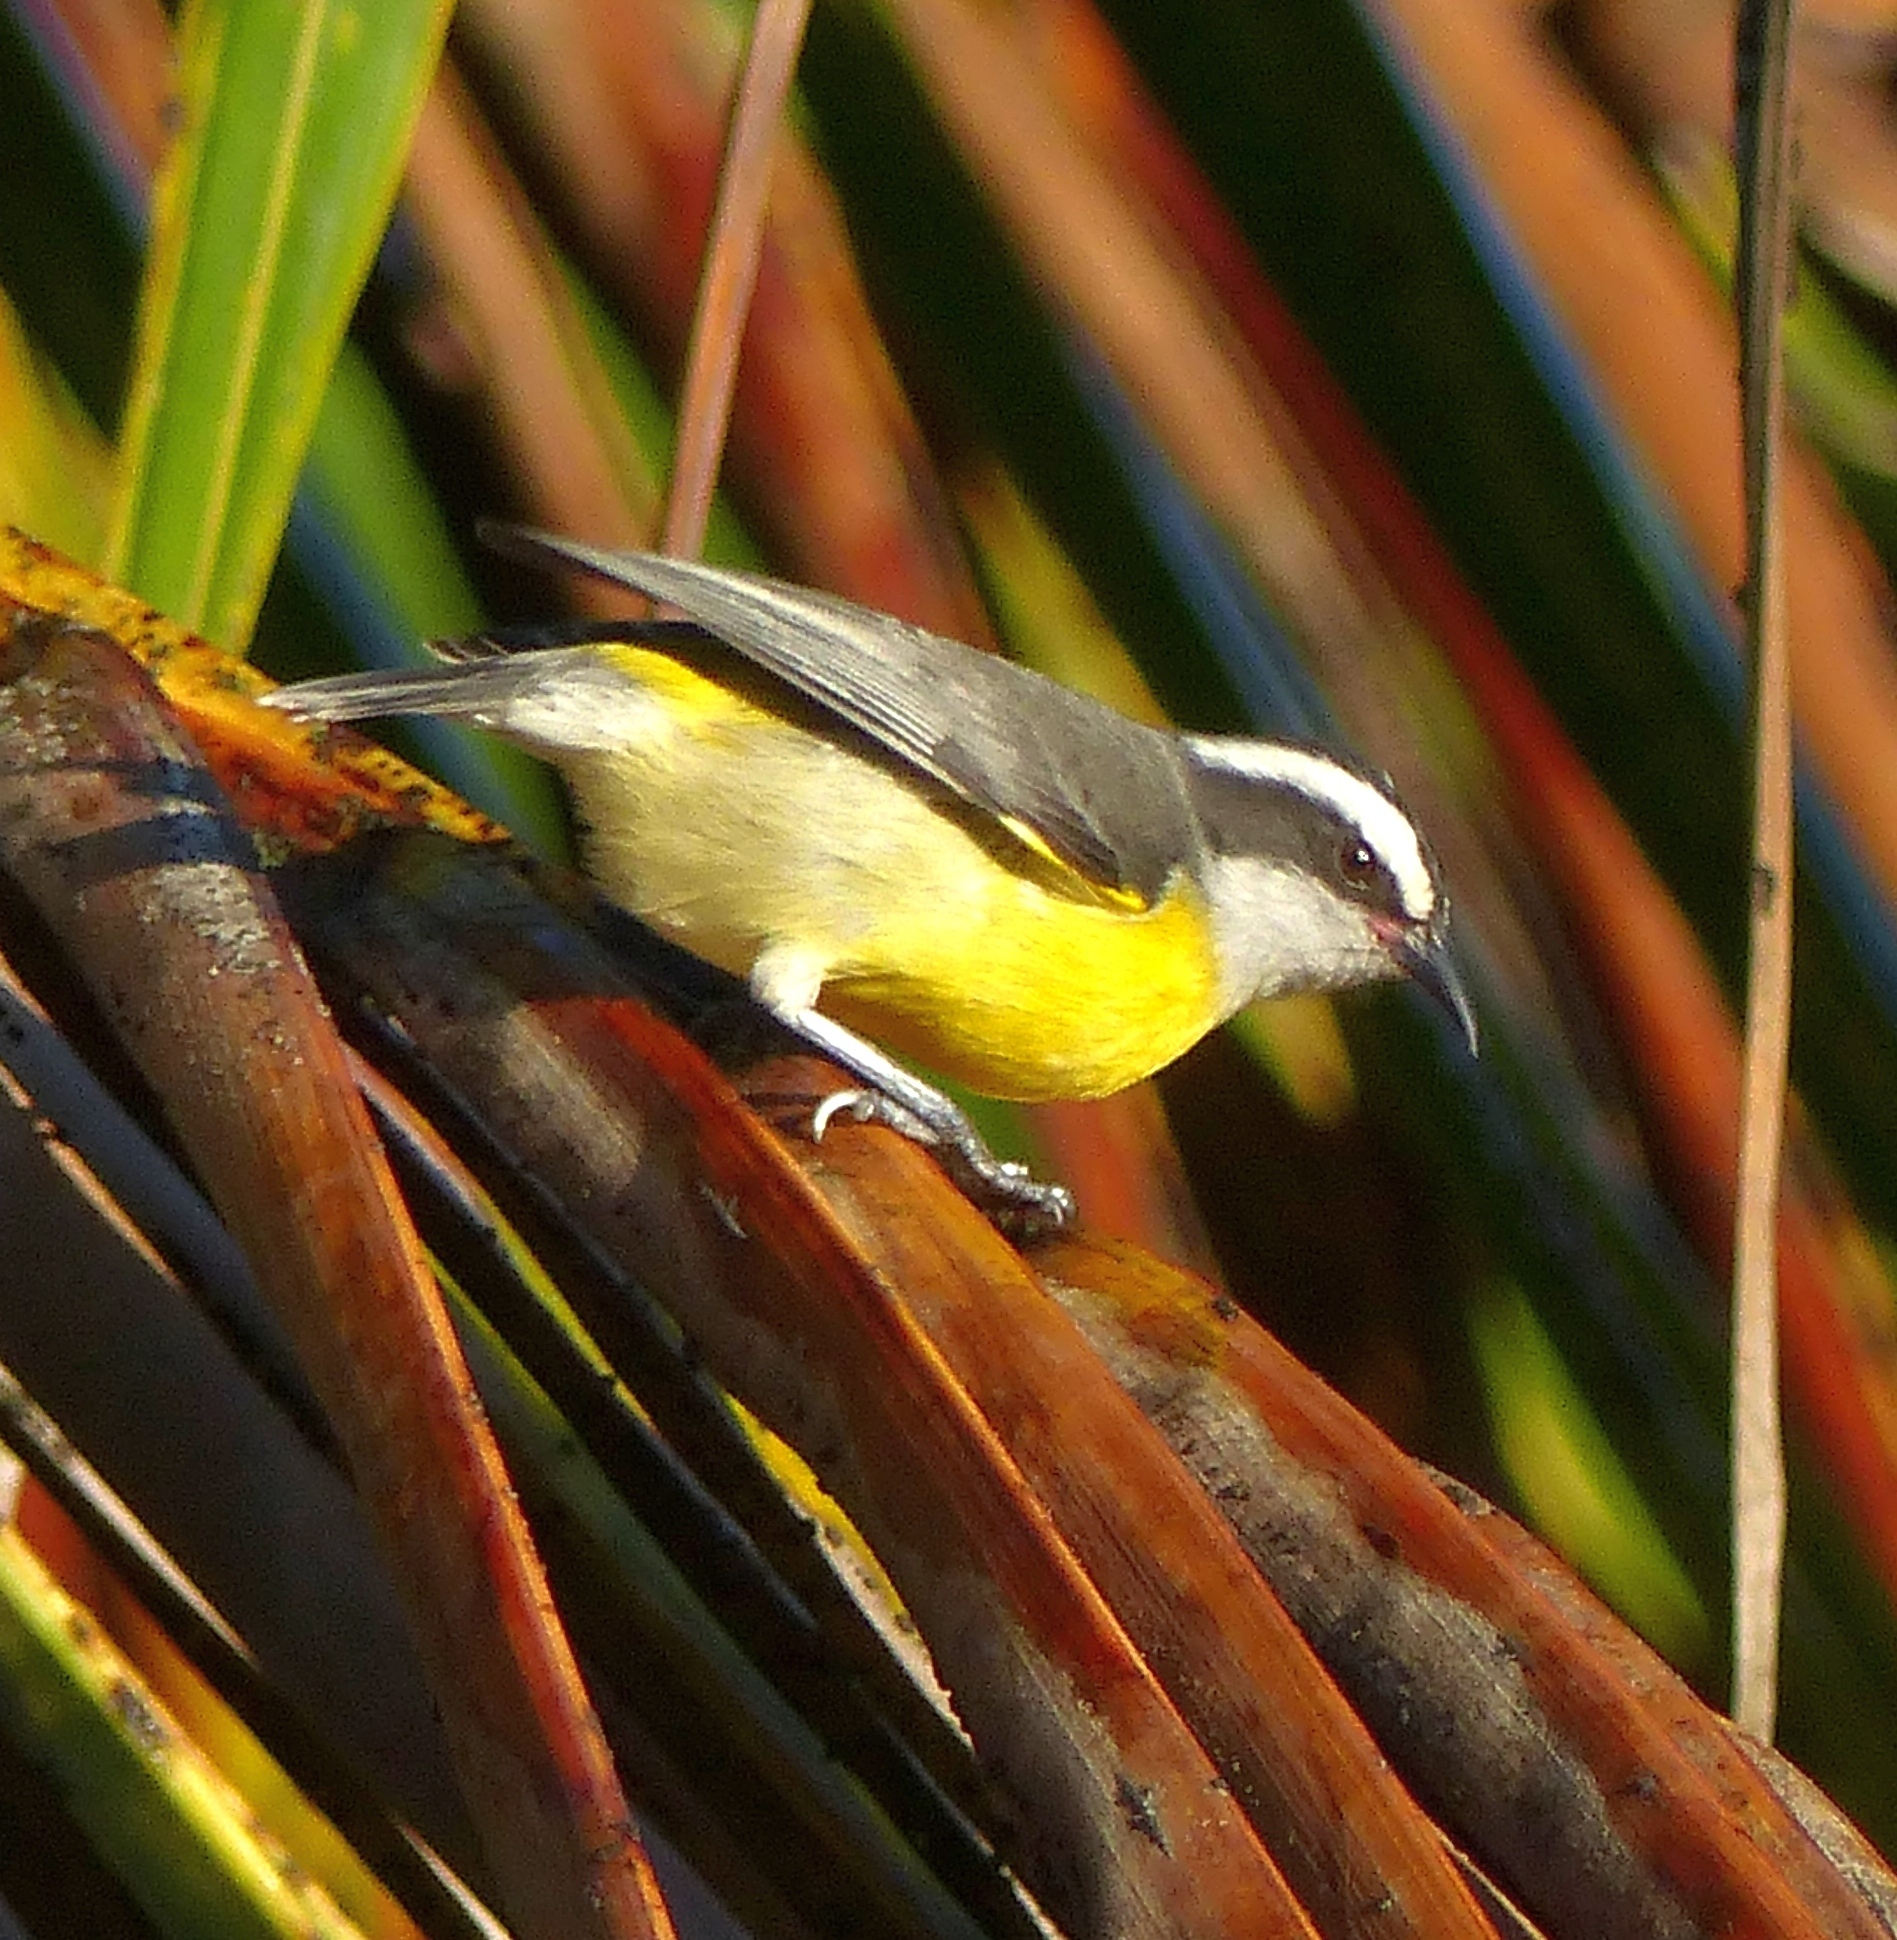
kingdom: Animalia
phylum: Chordata
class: Aves
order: Passeriformes
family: Thraupidae
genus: Coereba
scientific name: Coereba flaveola
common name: Bananaquit
